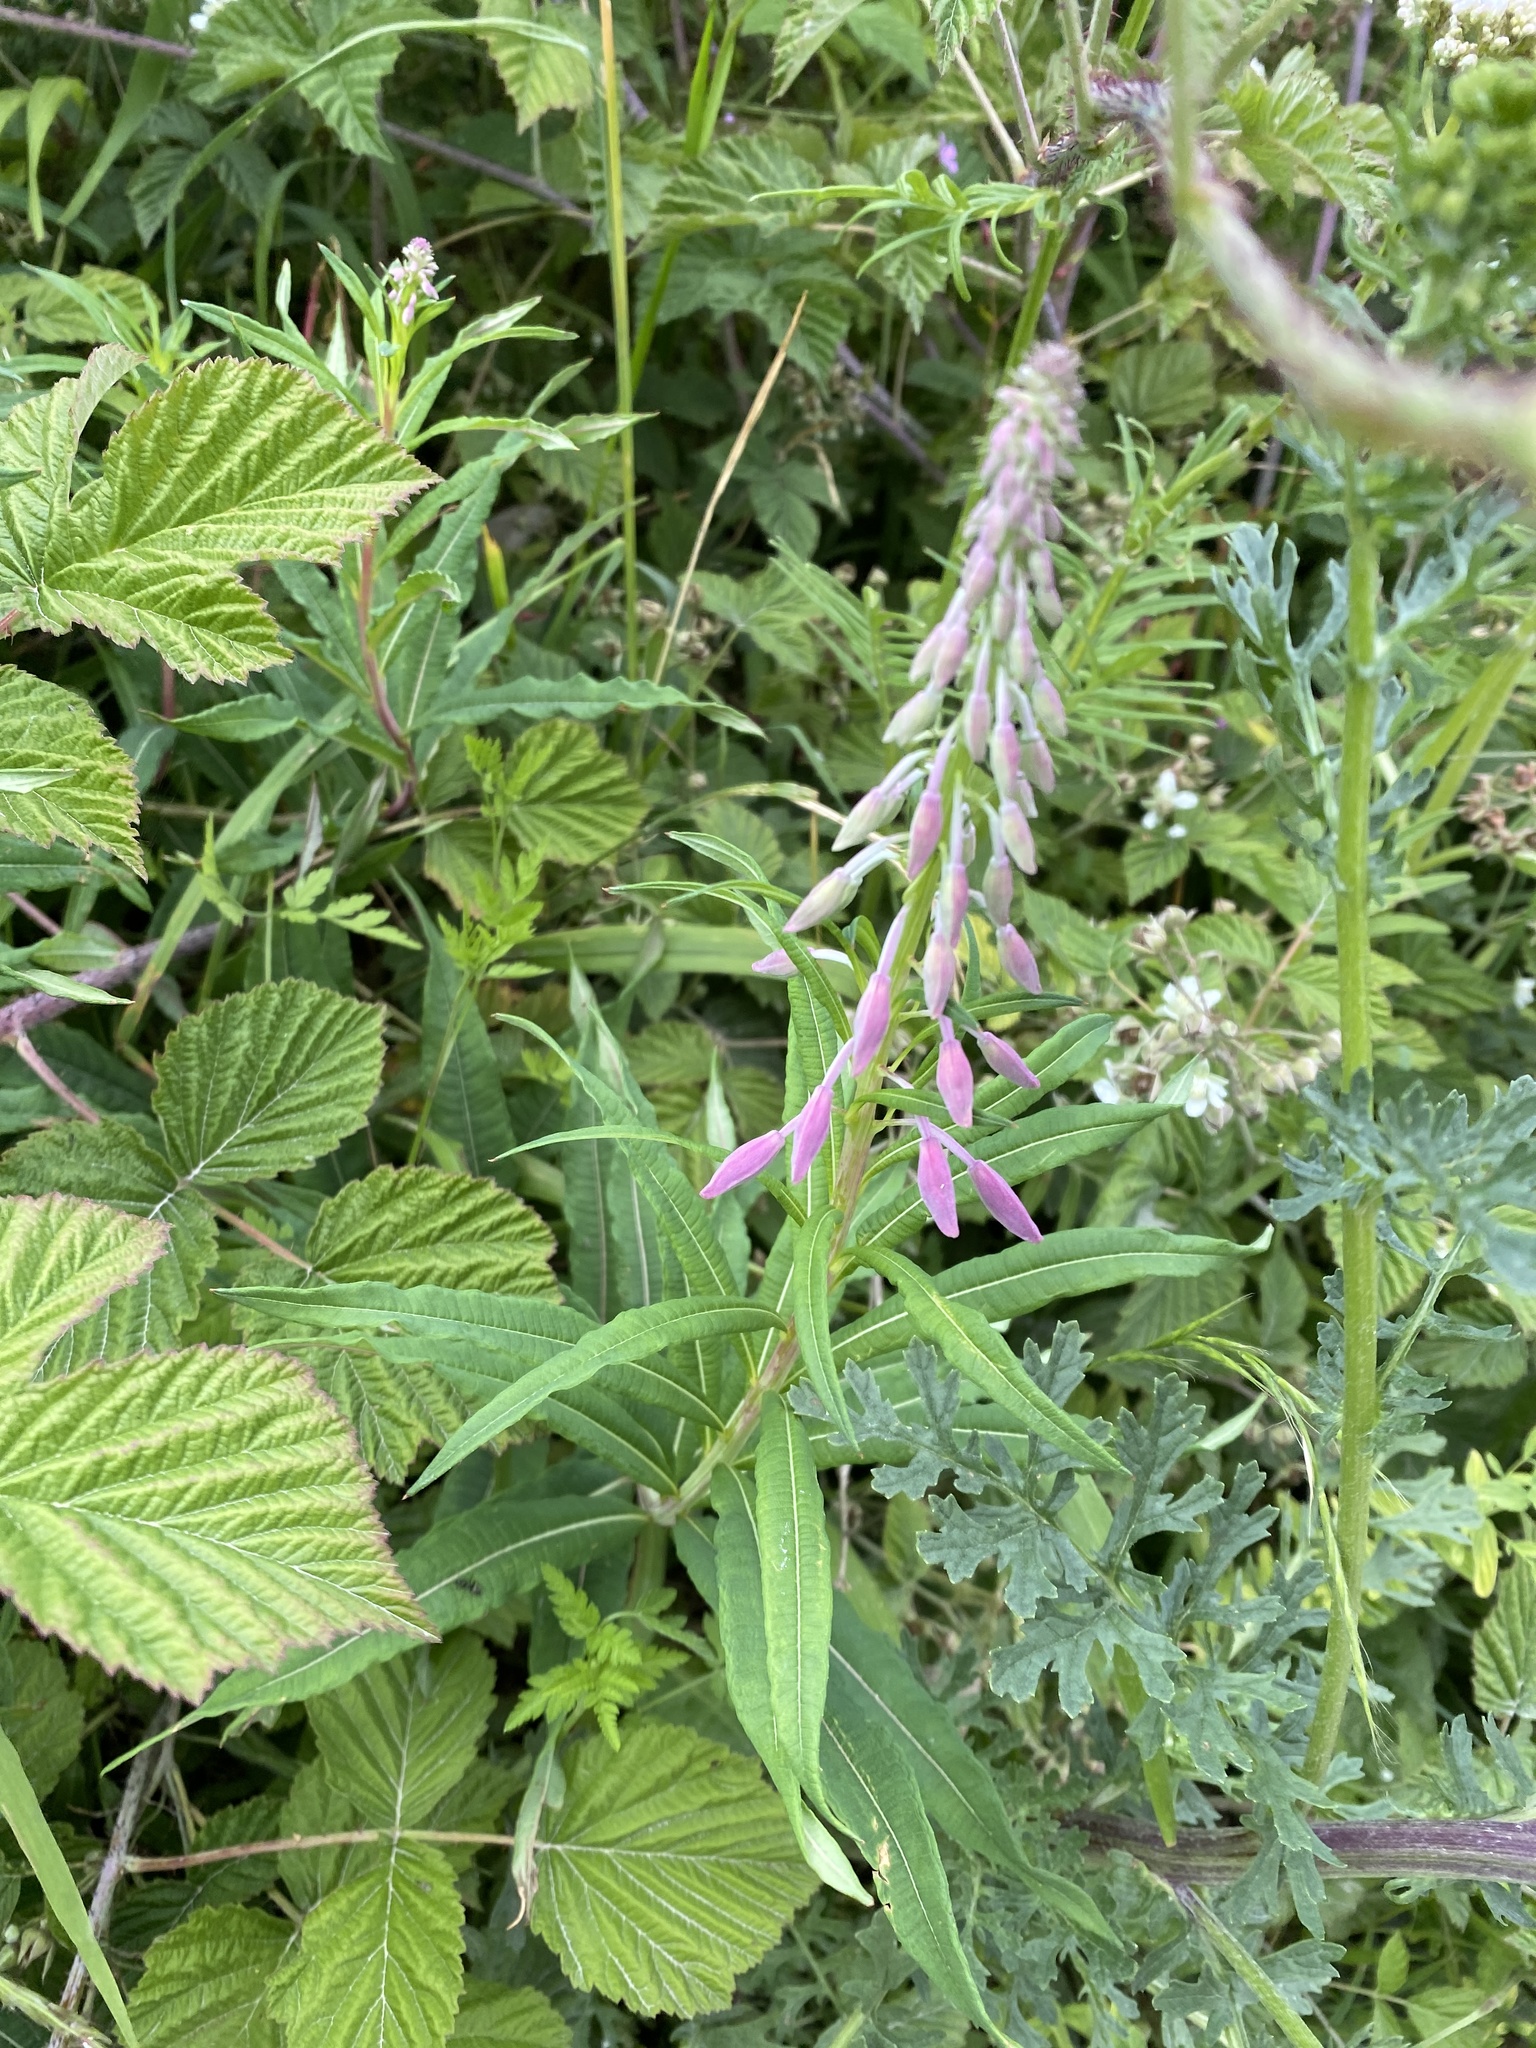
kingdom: Plantae
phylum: Tracheophyta
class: Magnoliopsida
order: Myrtales
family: Onagraceae
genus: Chamaenerion
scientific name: Chamaenerion angustifolium
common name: Fireweed
